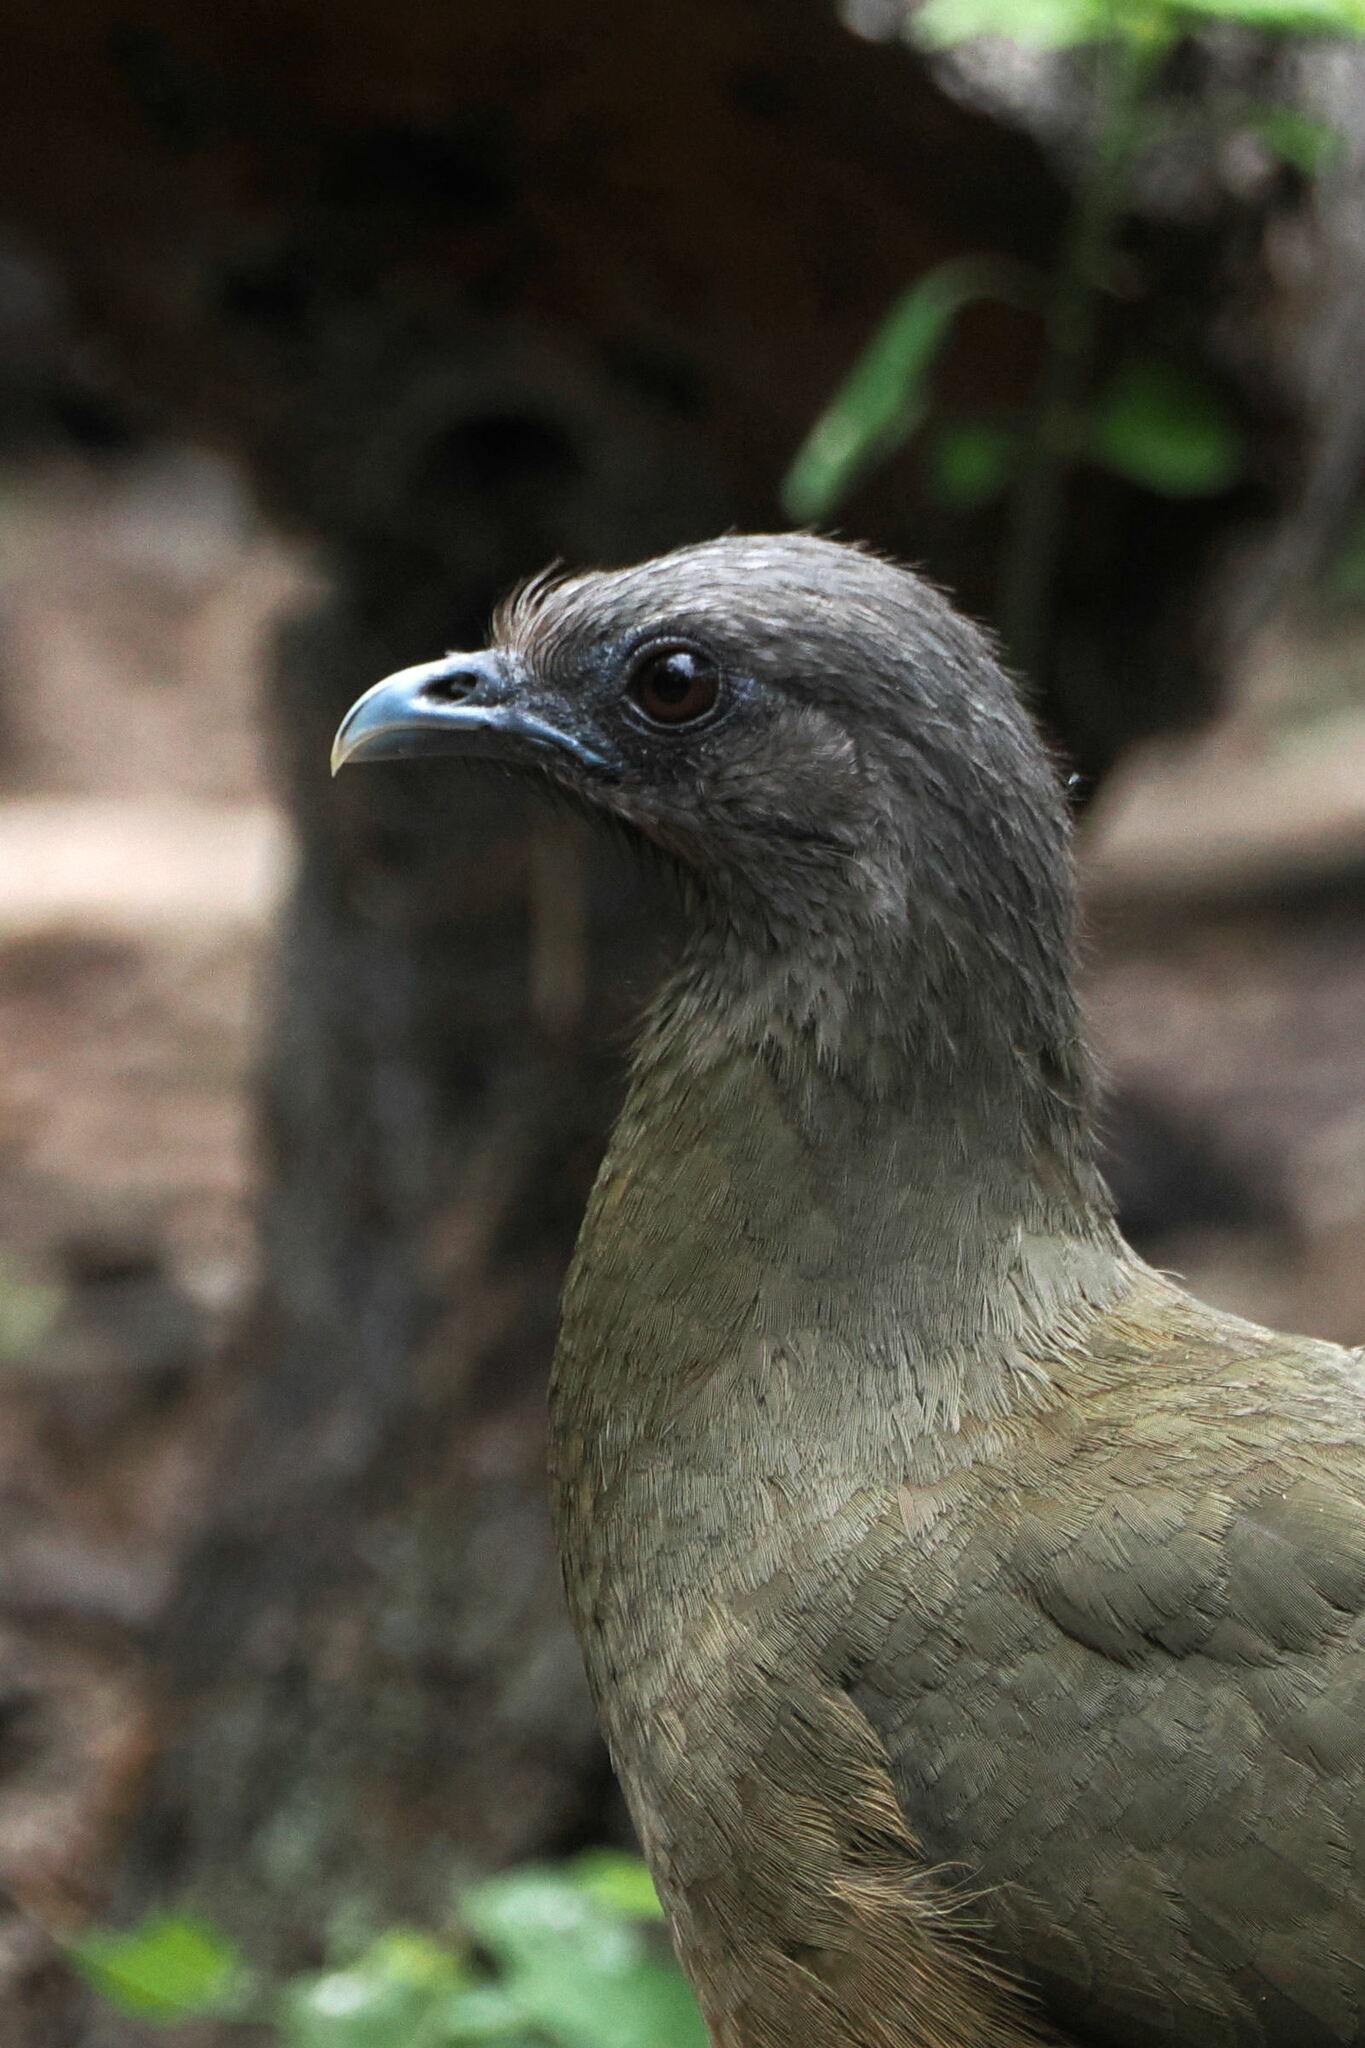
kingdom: Animalia
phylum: Chordata
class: Aves
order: Galliformes
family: Cracidae
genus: Ortalis
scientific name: Ortalis vetula
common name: Plain chachalaca
